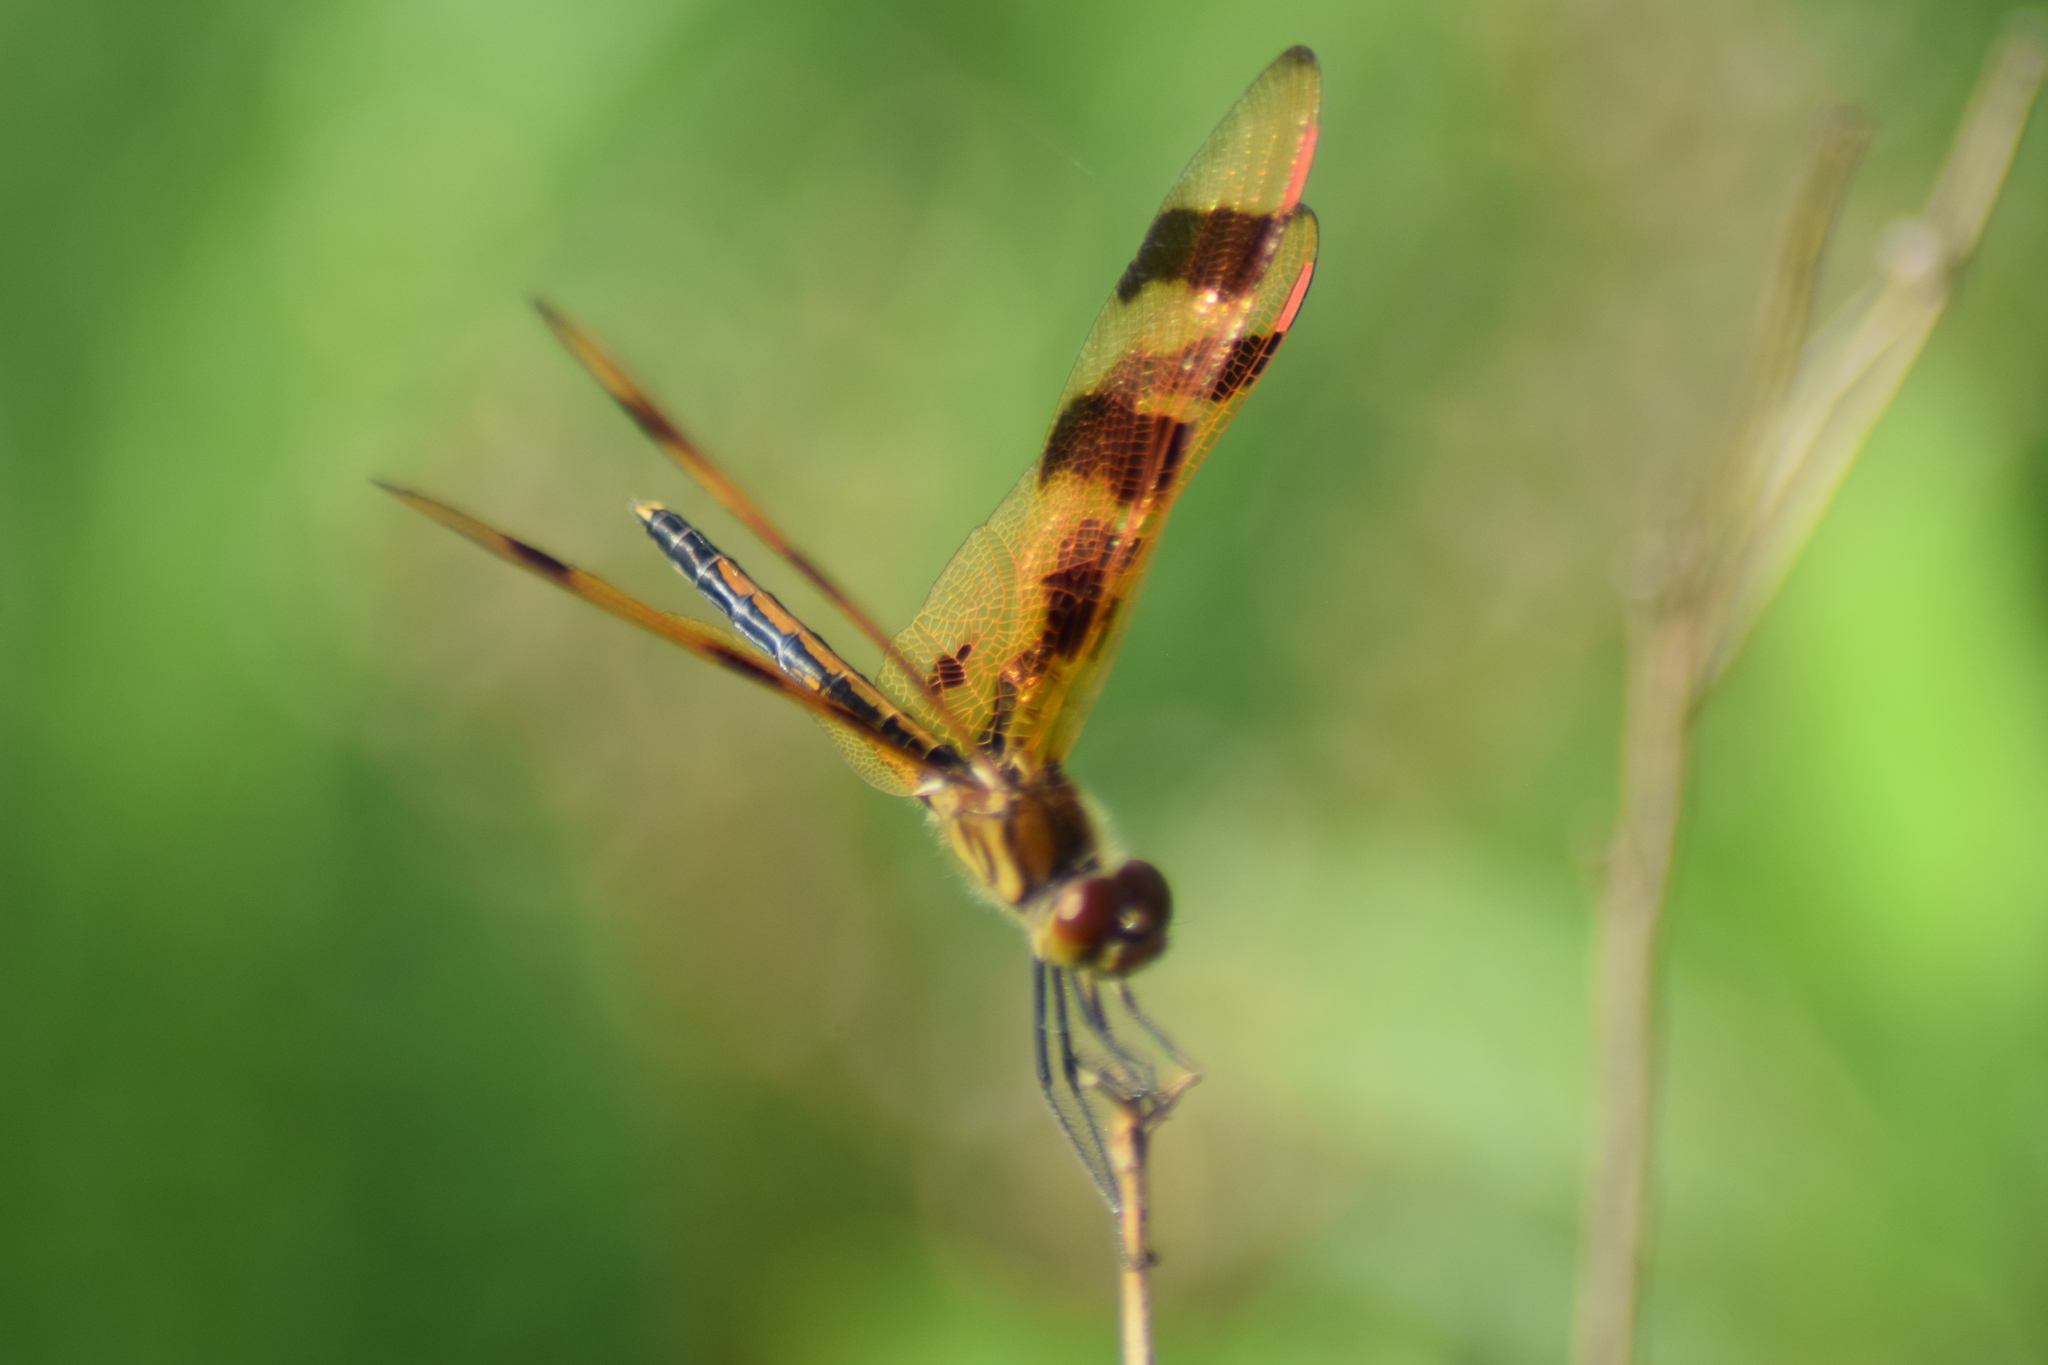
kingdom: Animalia
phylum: Arthropoda
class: Insecta
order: Odonata
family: Libellulidae
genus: Celithemis
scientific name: Celithemis eponina
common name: Halloween pennant
